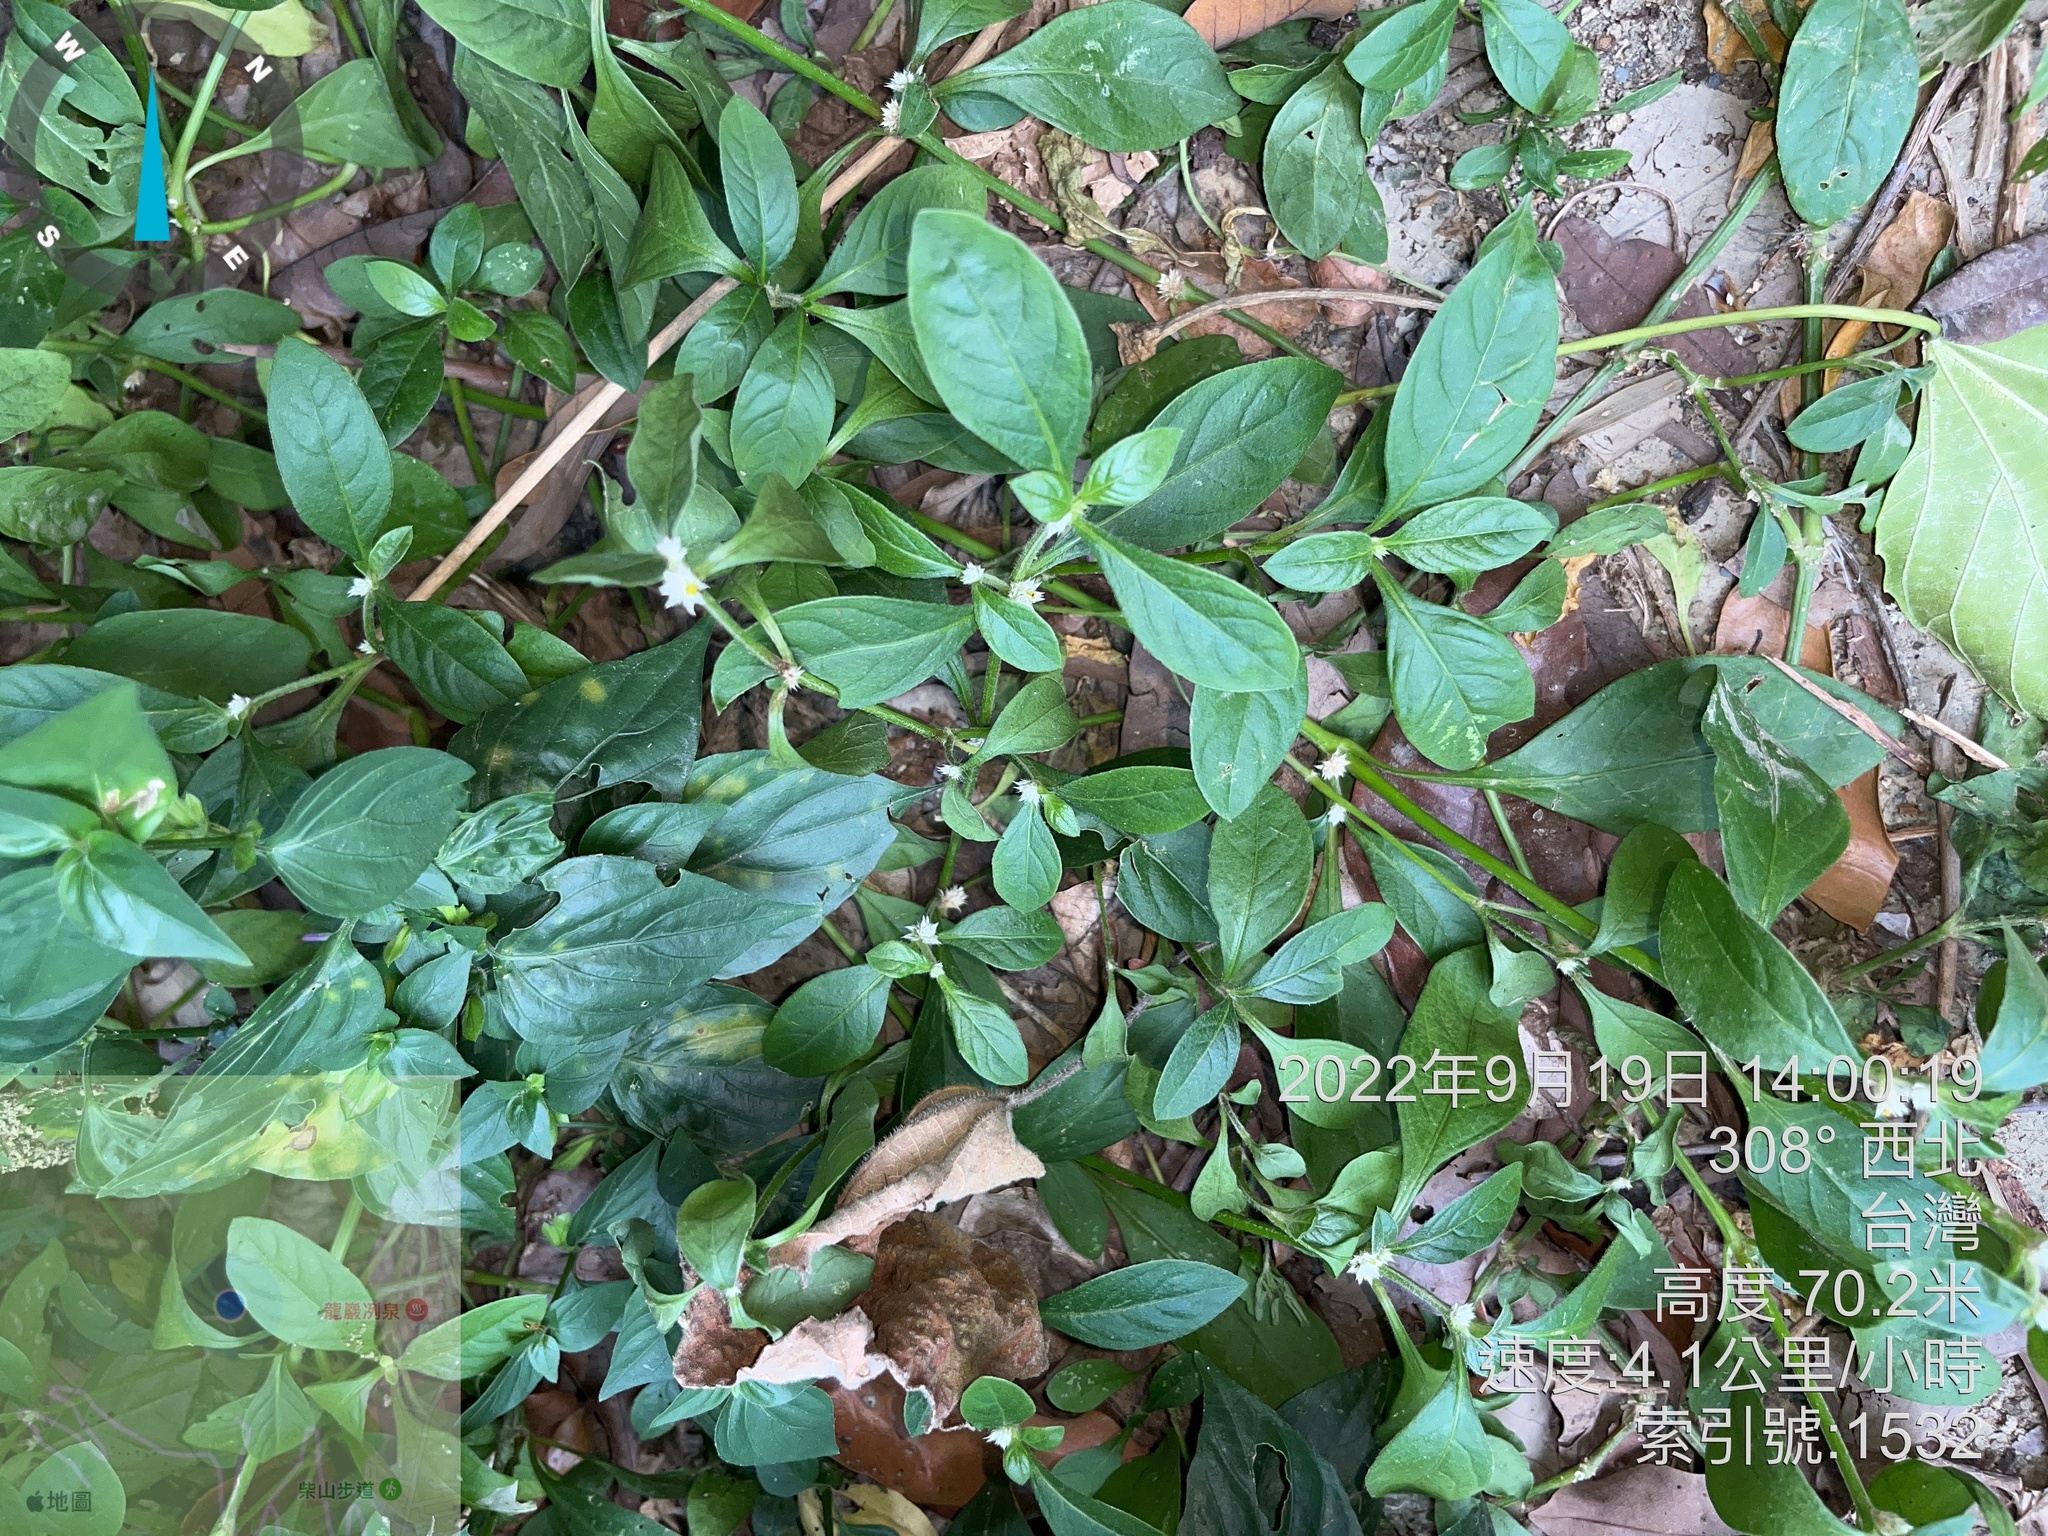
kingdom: Plantae
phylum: Tracheophyta
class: Magnoliopsida
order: Caryophyllales
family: Amaranthaceae
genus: Alternanthera
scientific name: Alternanthera bettzickiana
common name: Calico-plant
